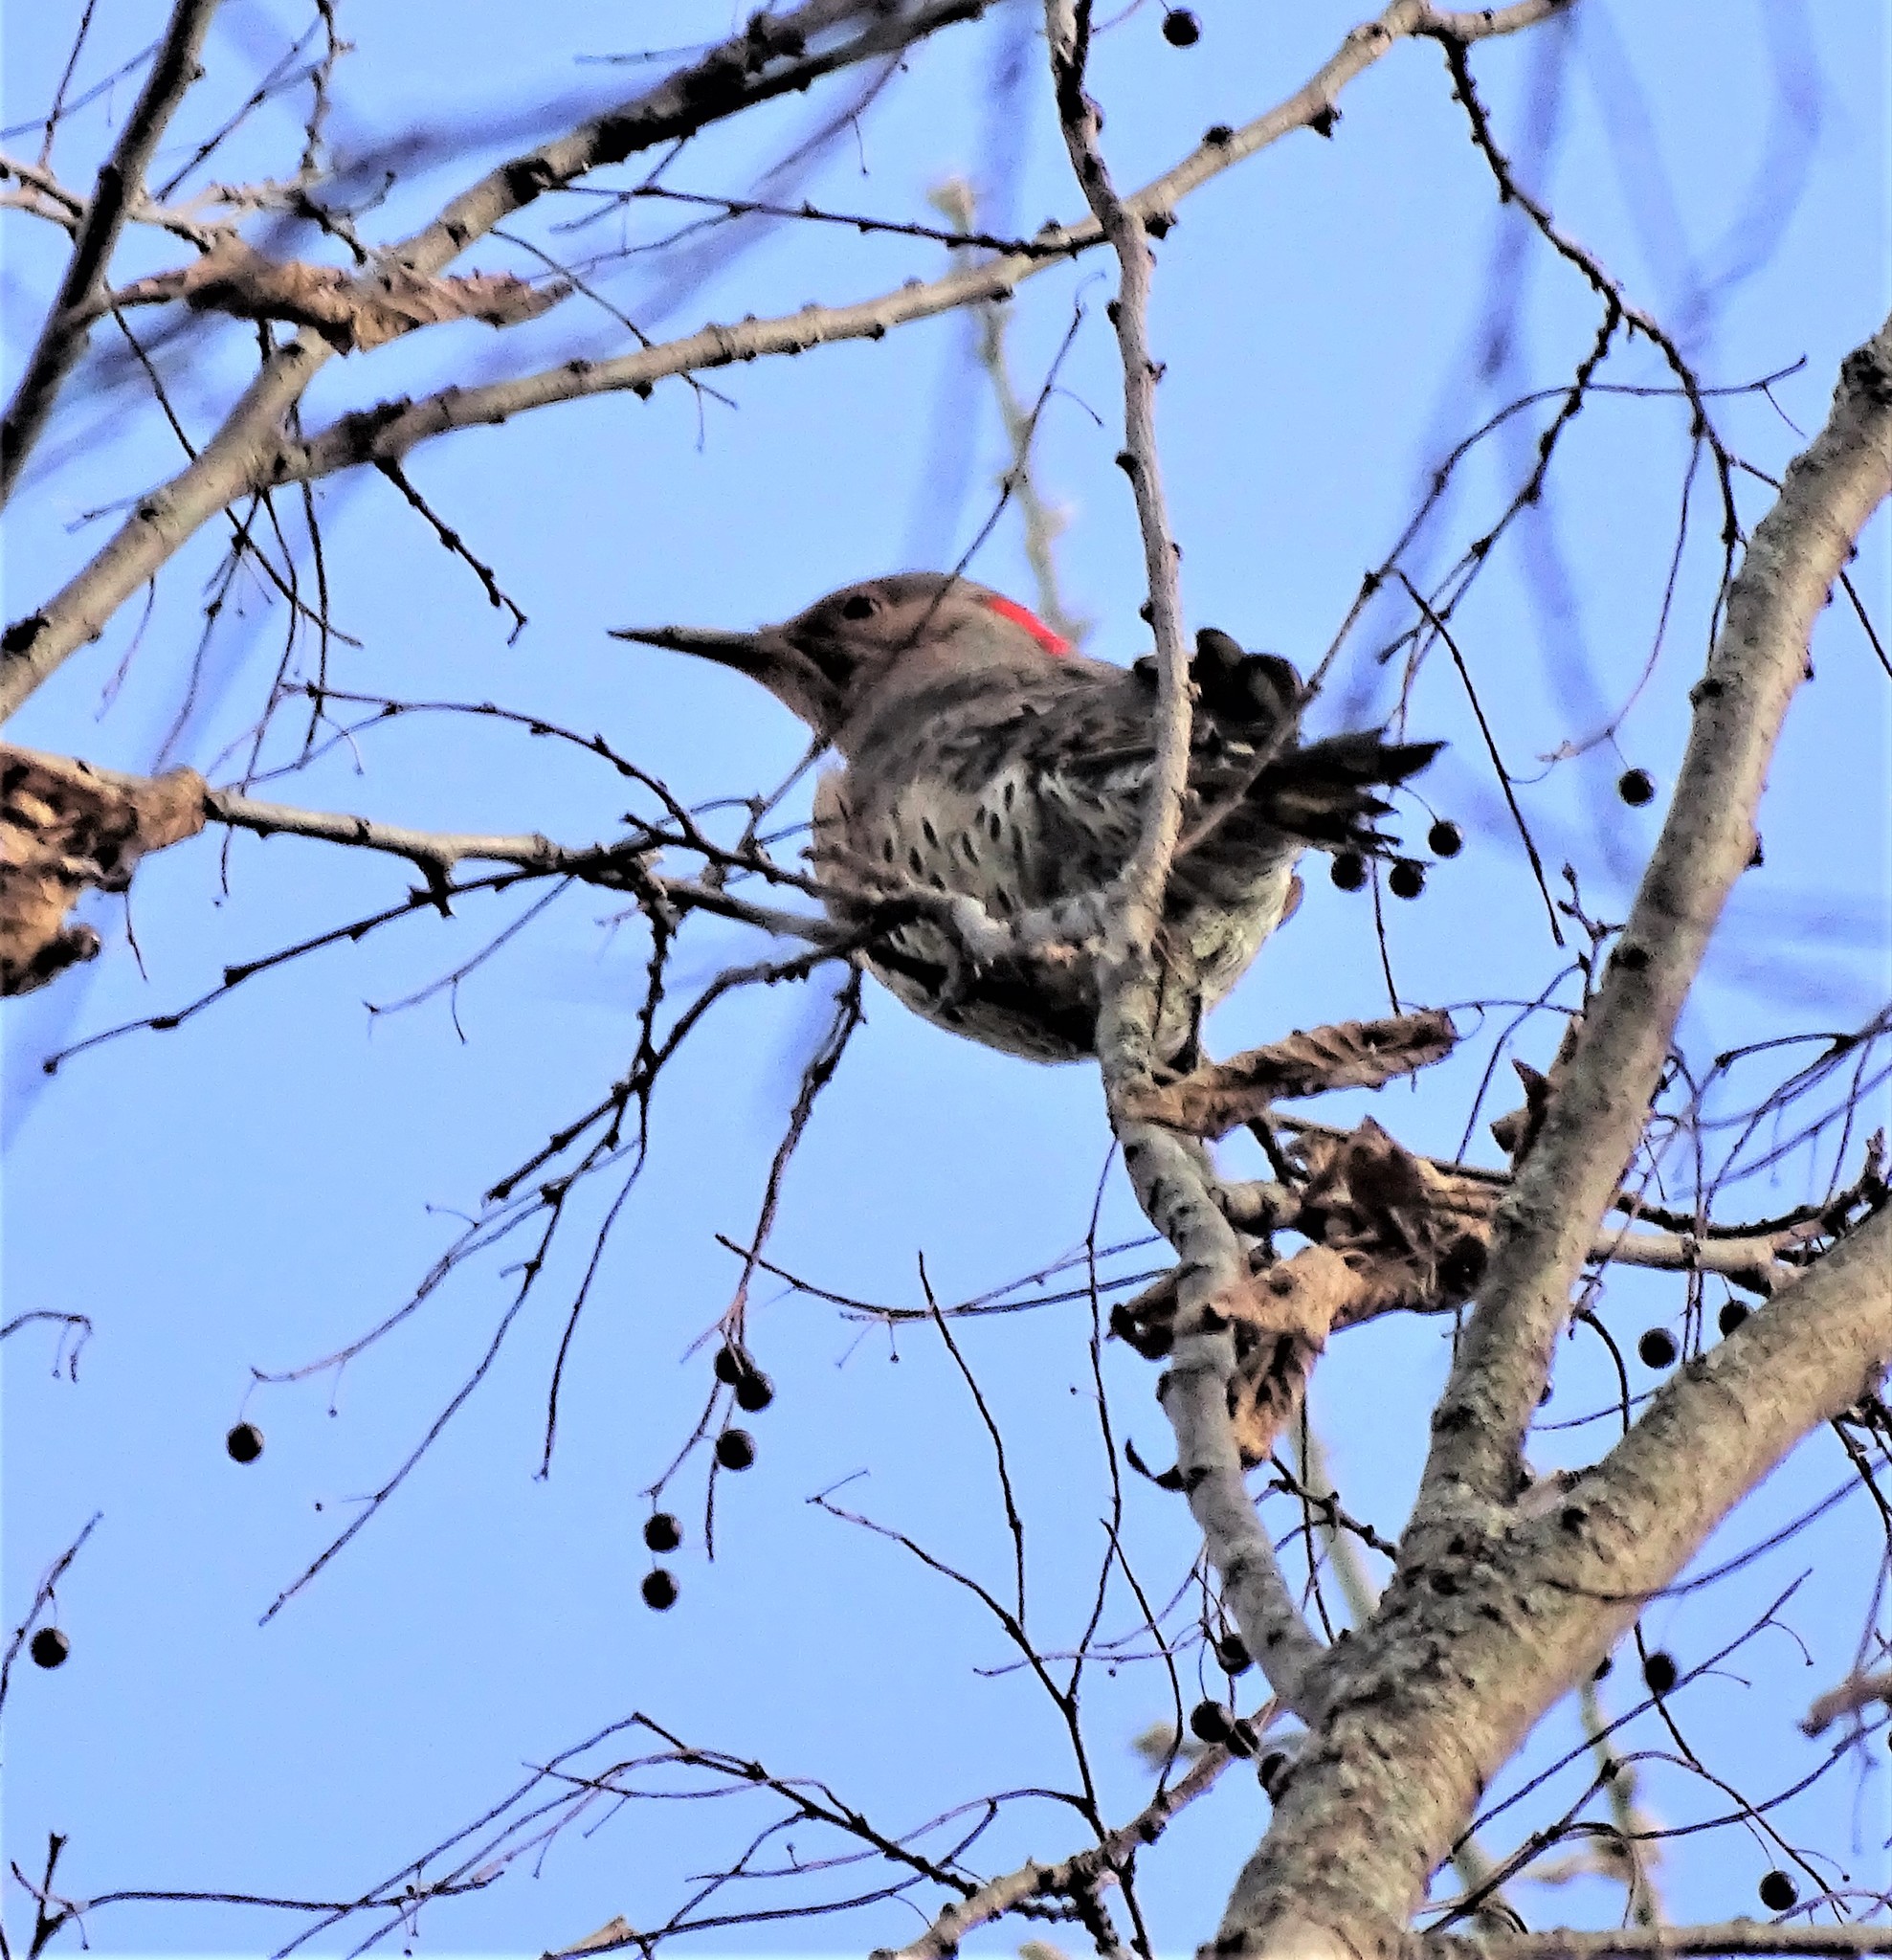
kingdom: Animalia
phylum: Chordata
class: Aves
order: Piciformes
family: Picidae
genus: Colaptes
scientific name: Colaptes auratus
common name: Northern flicker
